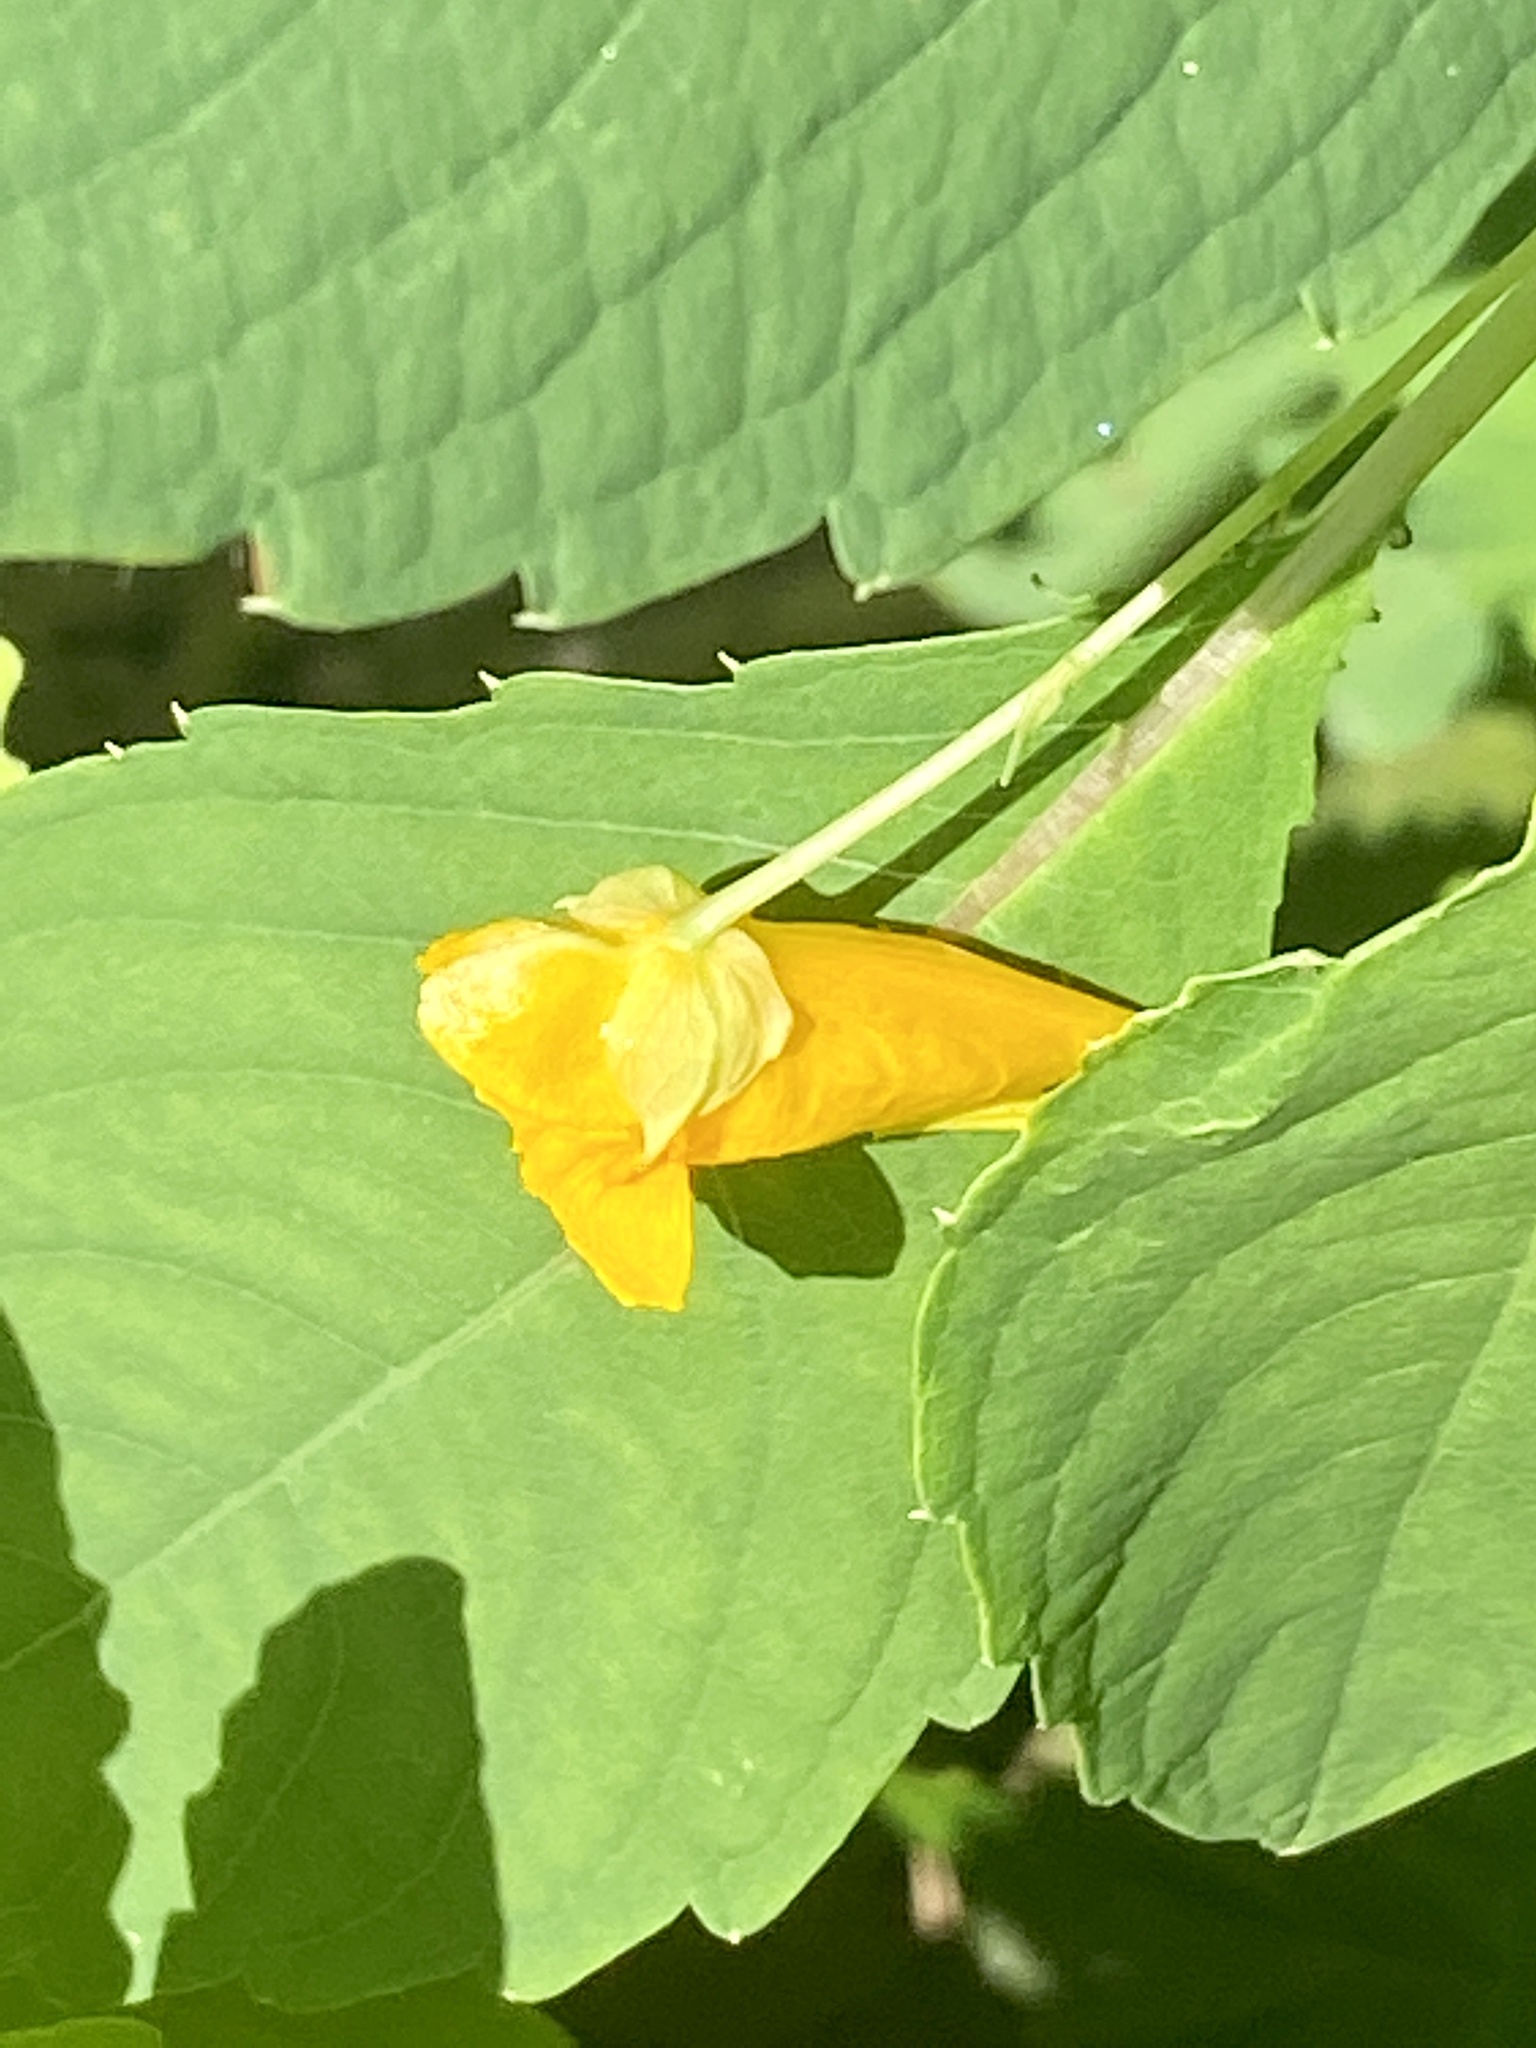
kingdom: Plantae
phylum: Tracheophyta
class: Magnoliopsida
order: Ericales
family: Balsaminaceae
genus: Impatiens
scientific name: Impatiens capensis
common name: Orange balsam
